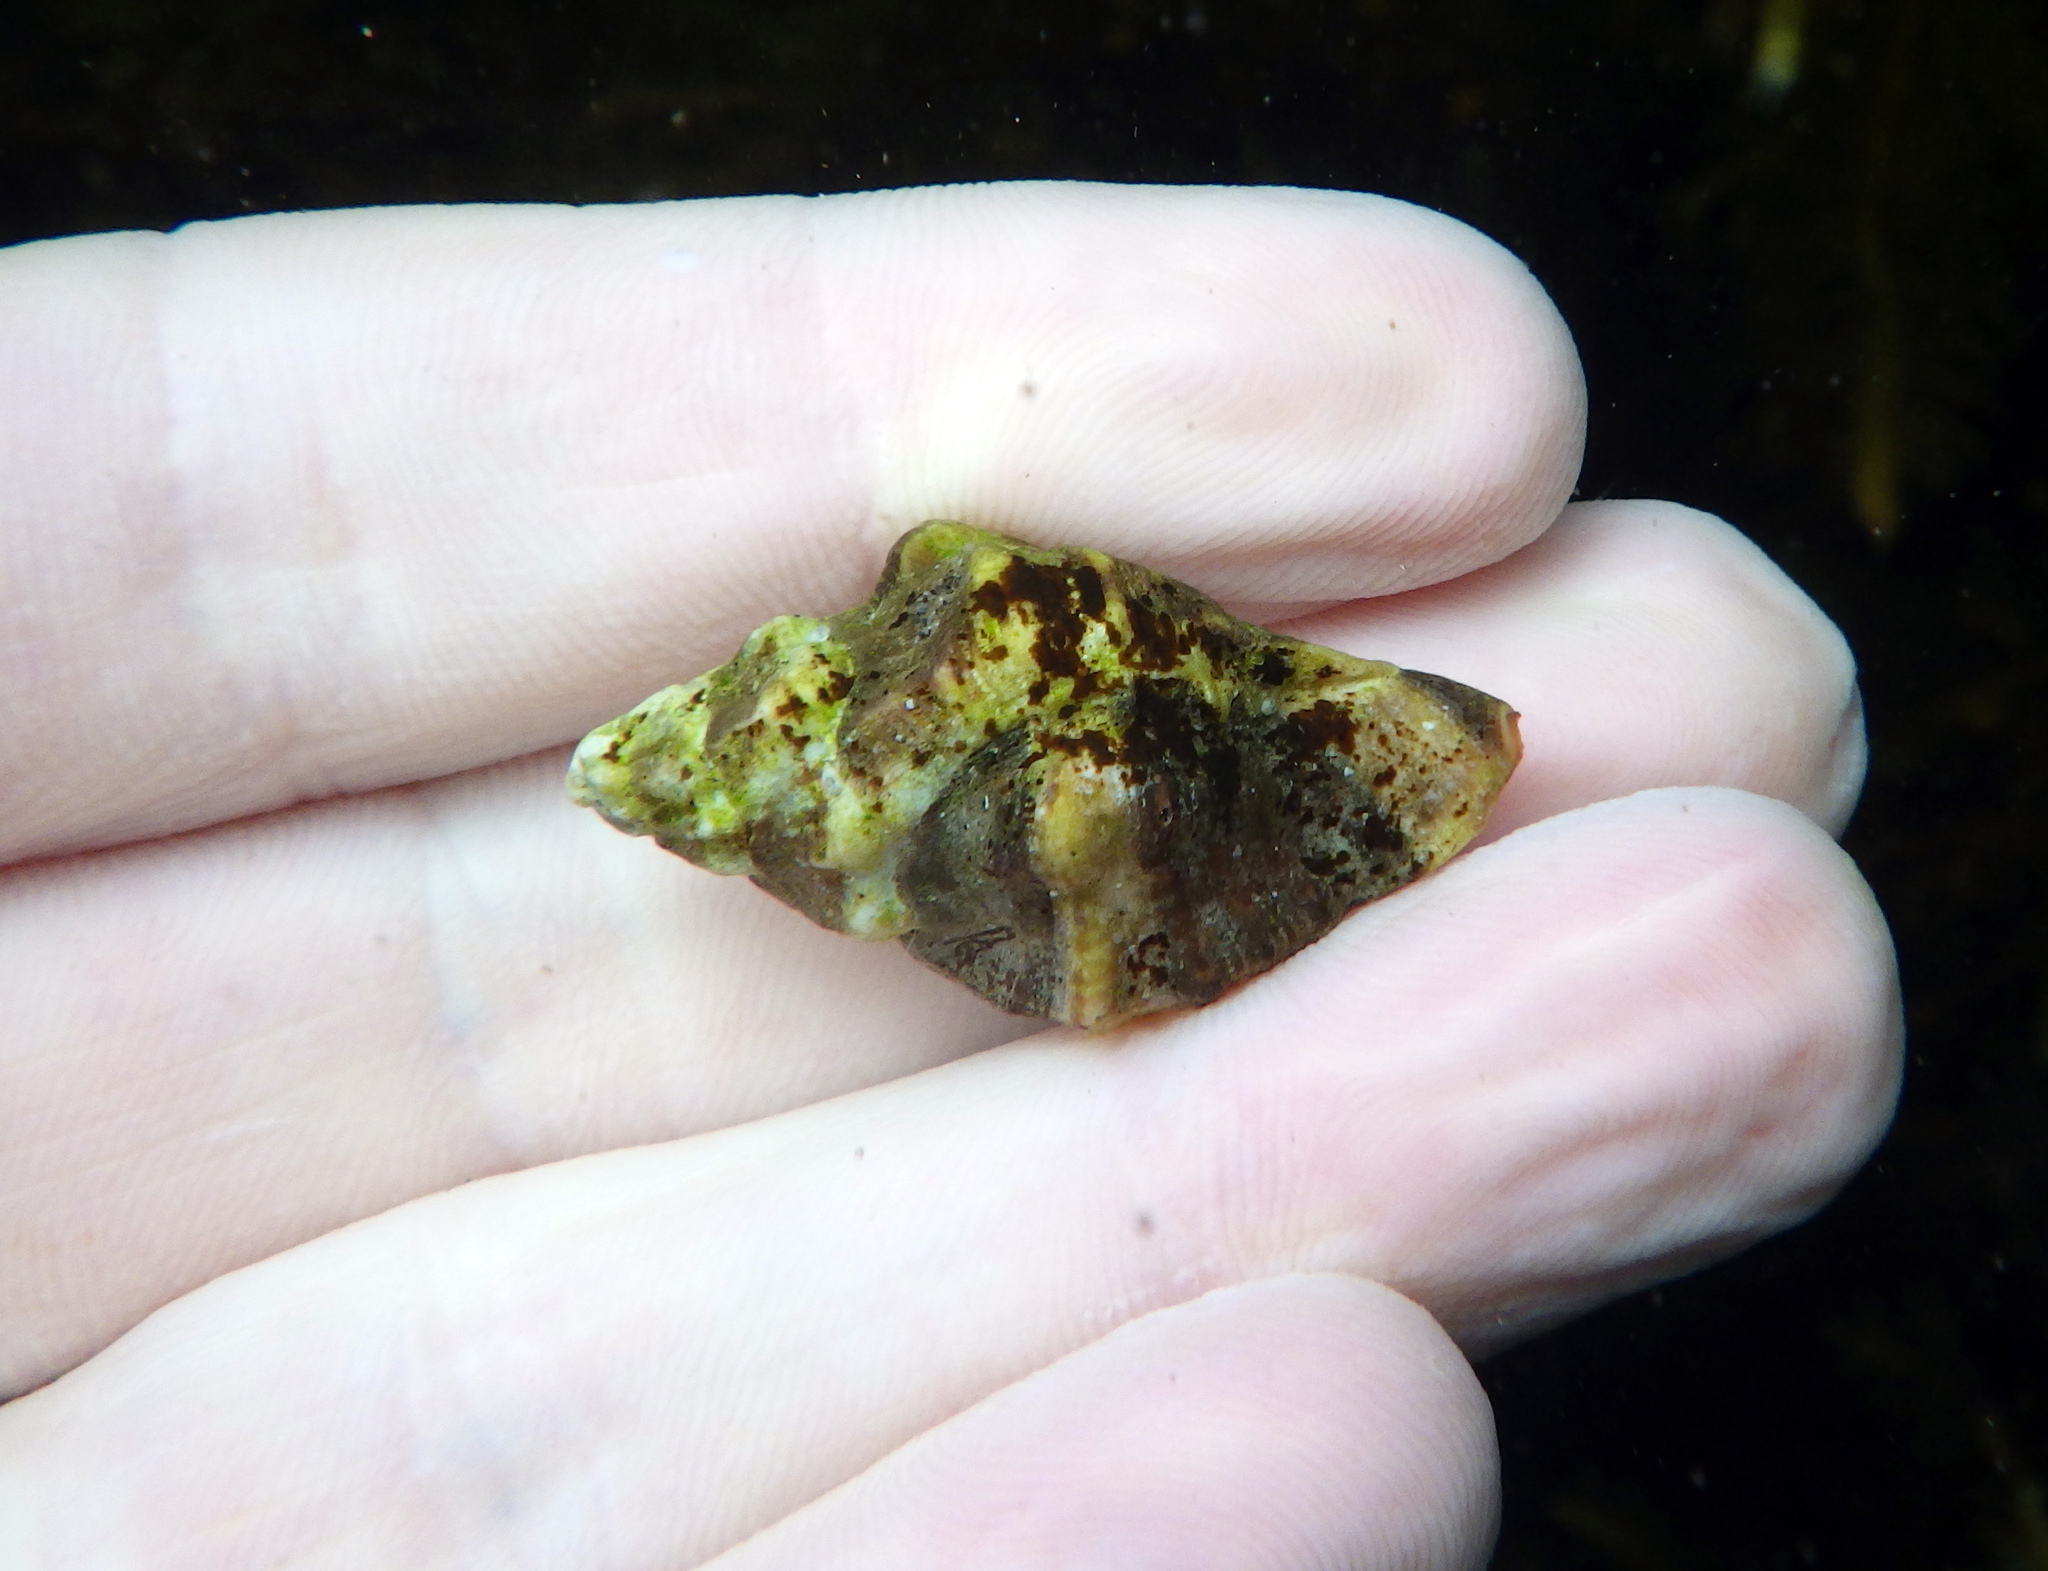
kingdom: Animalia
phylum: Mollusca
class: Gastropoda
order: Neogastropoda
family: Muricidae
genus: Ceratostoma
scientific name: Ceratostoma nuttalli
